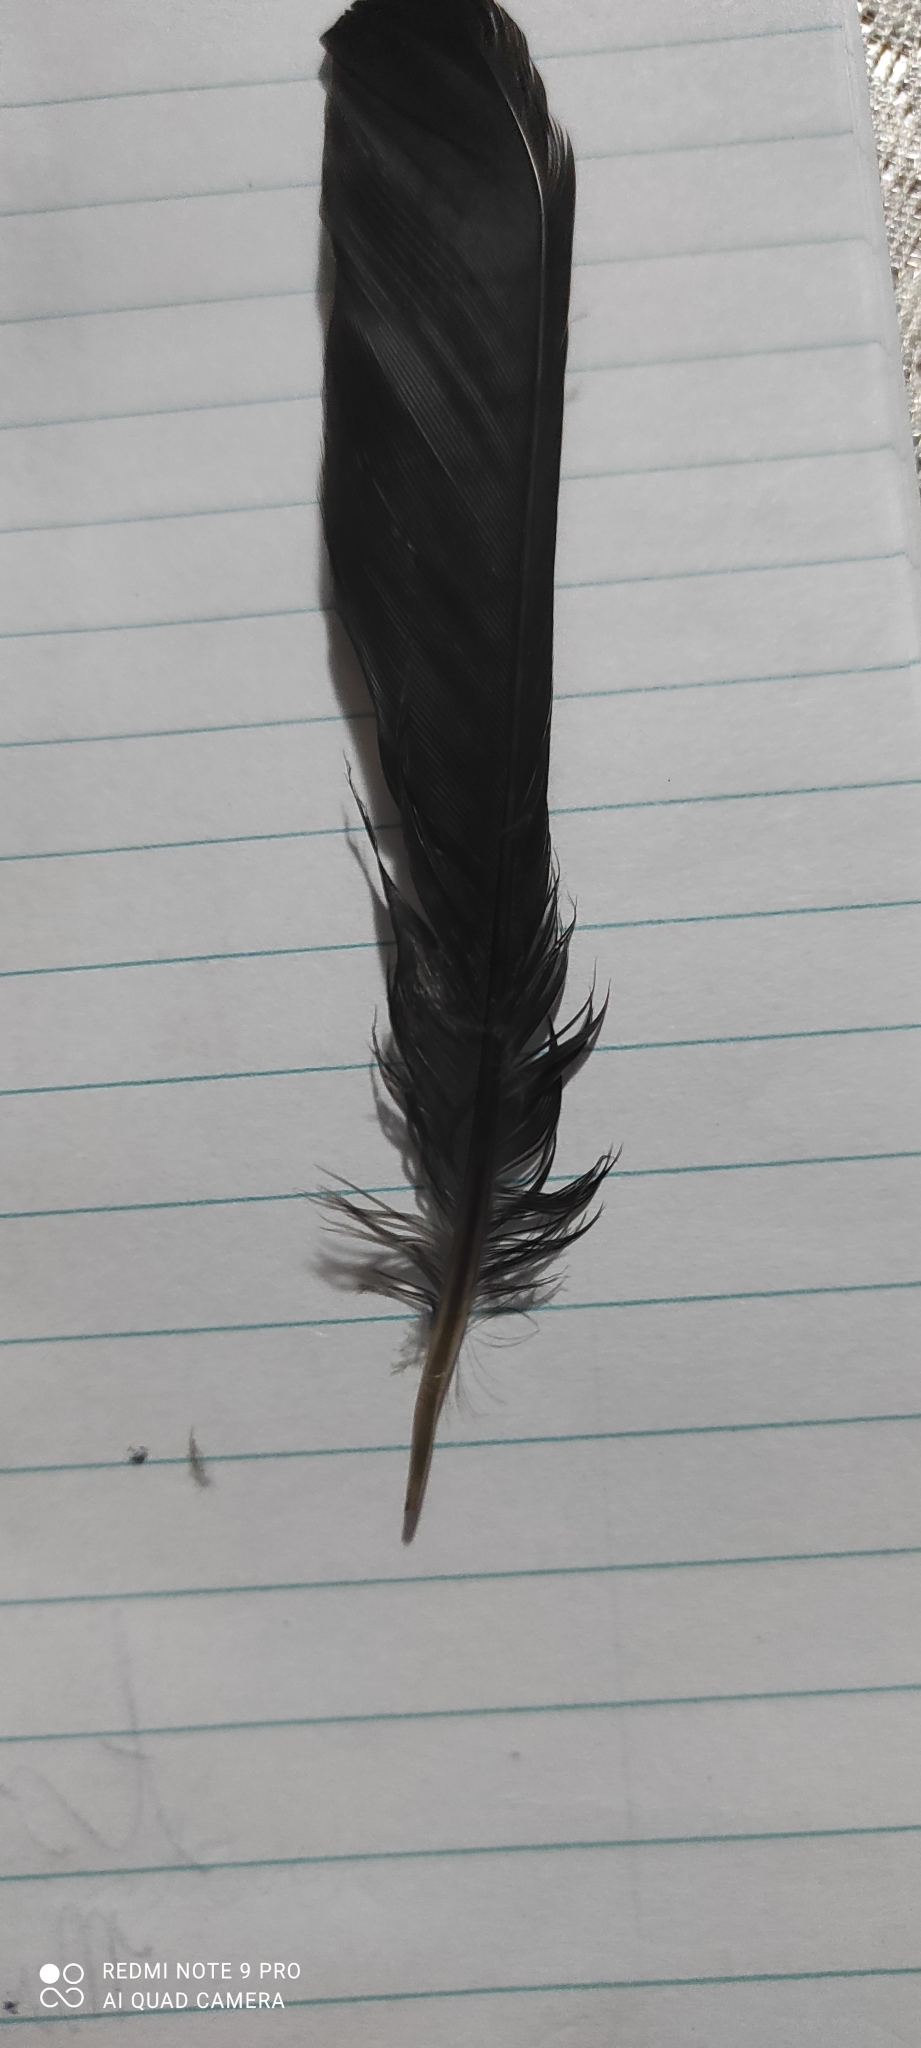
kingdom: Animalia
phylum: Chordata
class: Aves
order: Passeriformes
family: Turdidae
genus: Turdus
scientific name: Turdus merula
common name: Common blackbird
